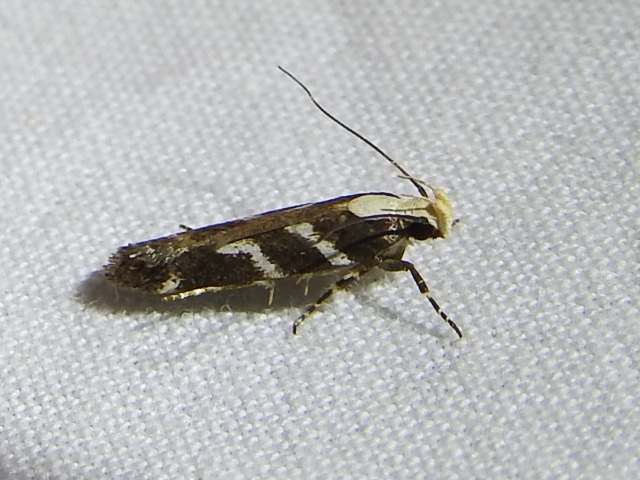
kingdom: Animalia
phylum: Arthropoda
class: Insecta
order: Lepidoptera
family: Gelechiidae
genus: Filatima
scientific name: Filatima albilorella
